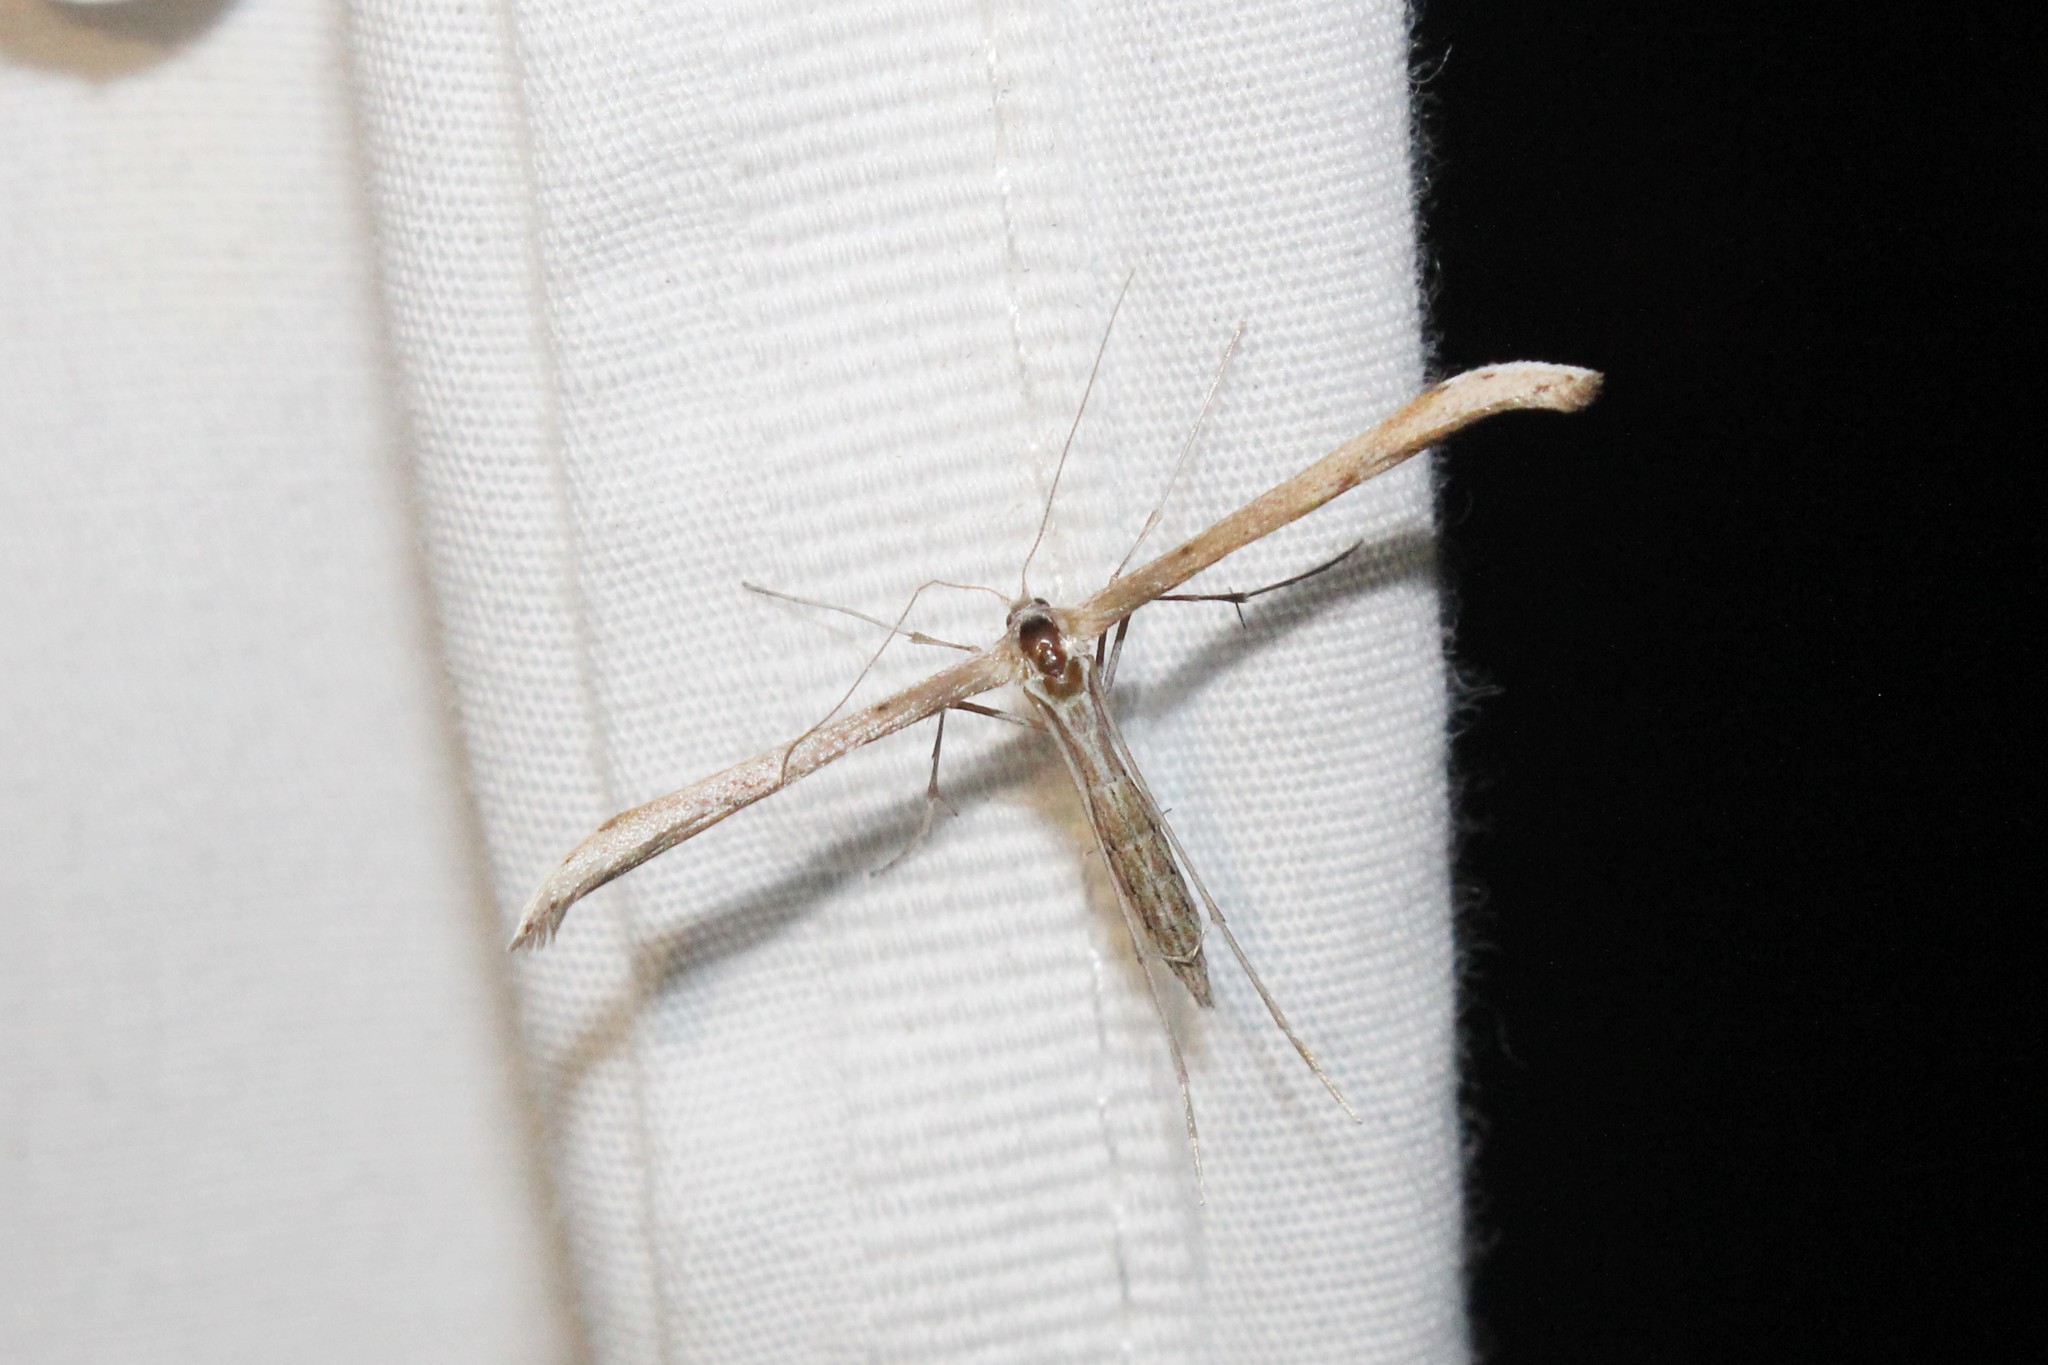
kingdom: Animalia
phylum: Arthropoda
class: Insecta
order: Lepidoptera
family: Pterophoridae
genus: Emmelina
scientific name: Emmelina monodactyla
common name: Common plume
